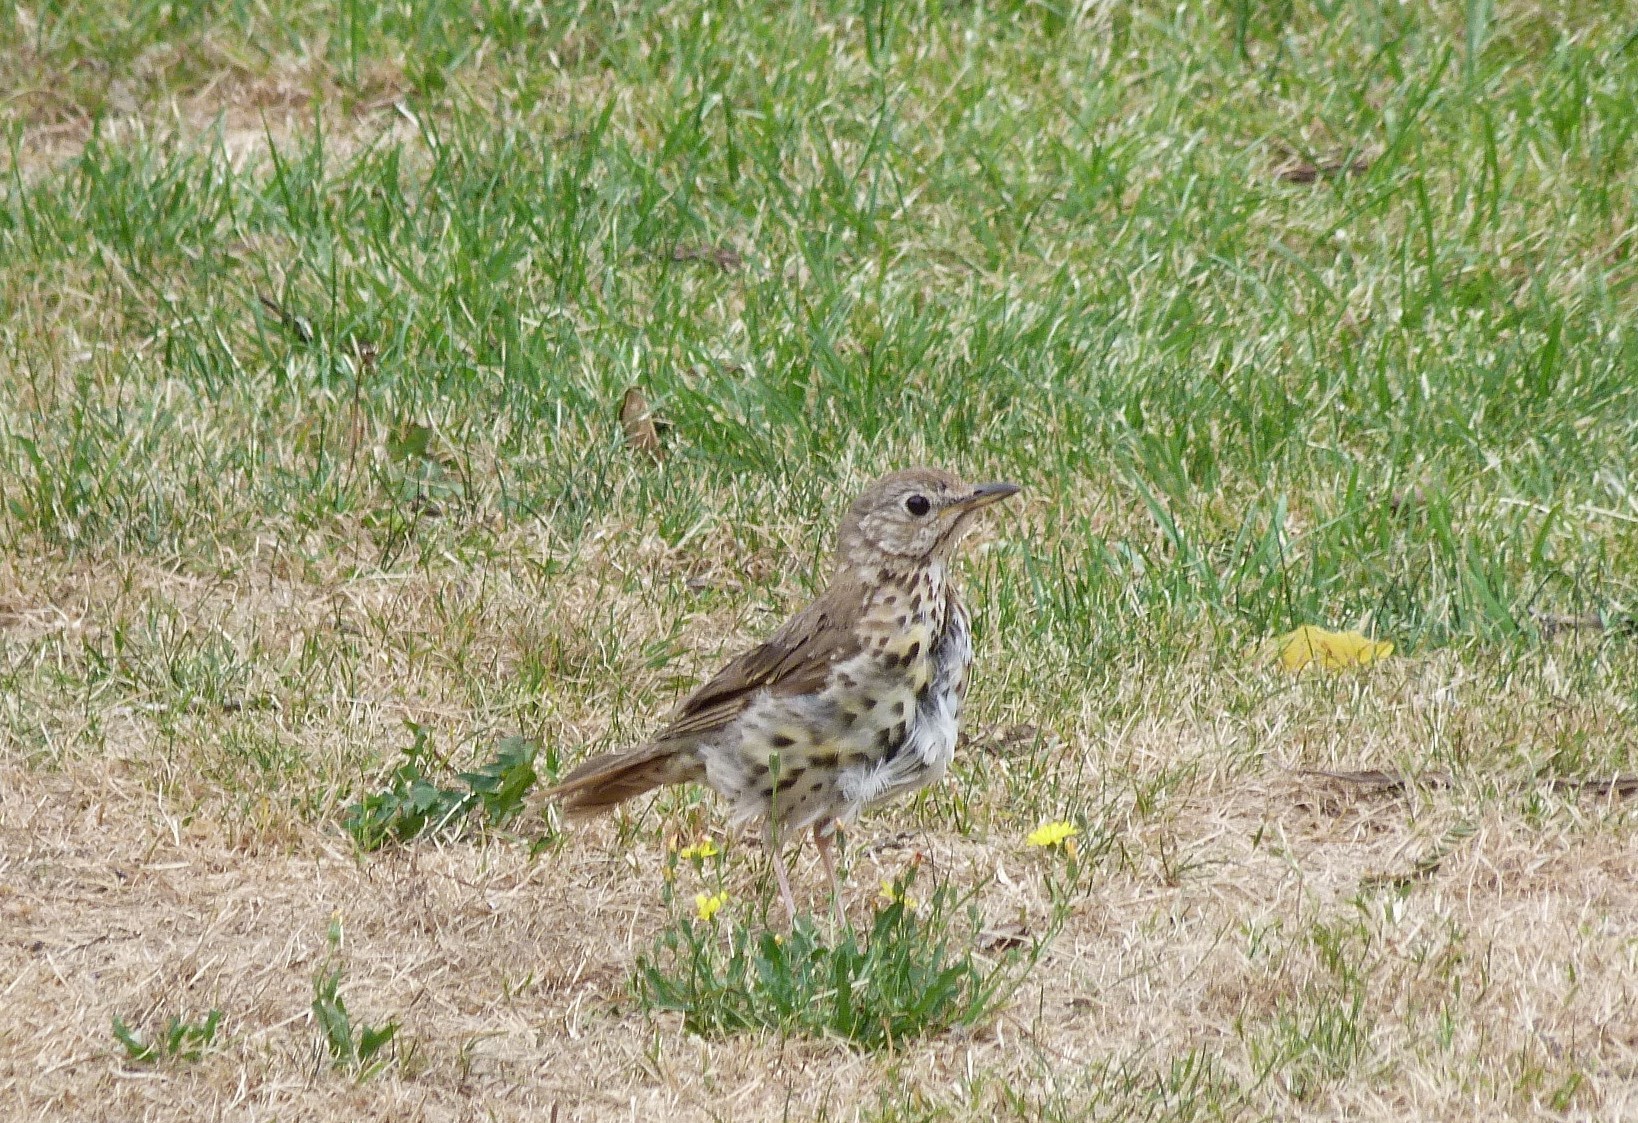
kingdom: Animalia
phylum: Chordata
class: Aves
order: Passeriformes
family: Turdidae
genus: Turdus
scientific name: Turdus philomelos
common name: Song thrush
